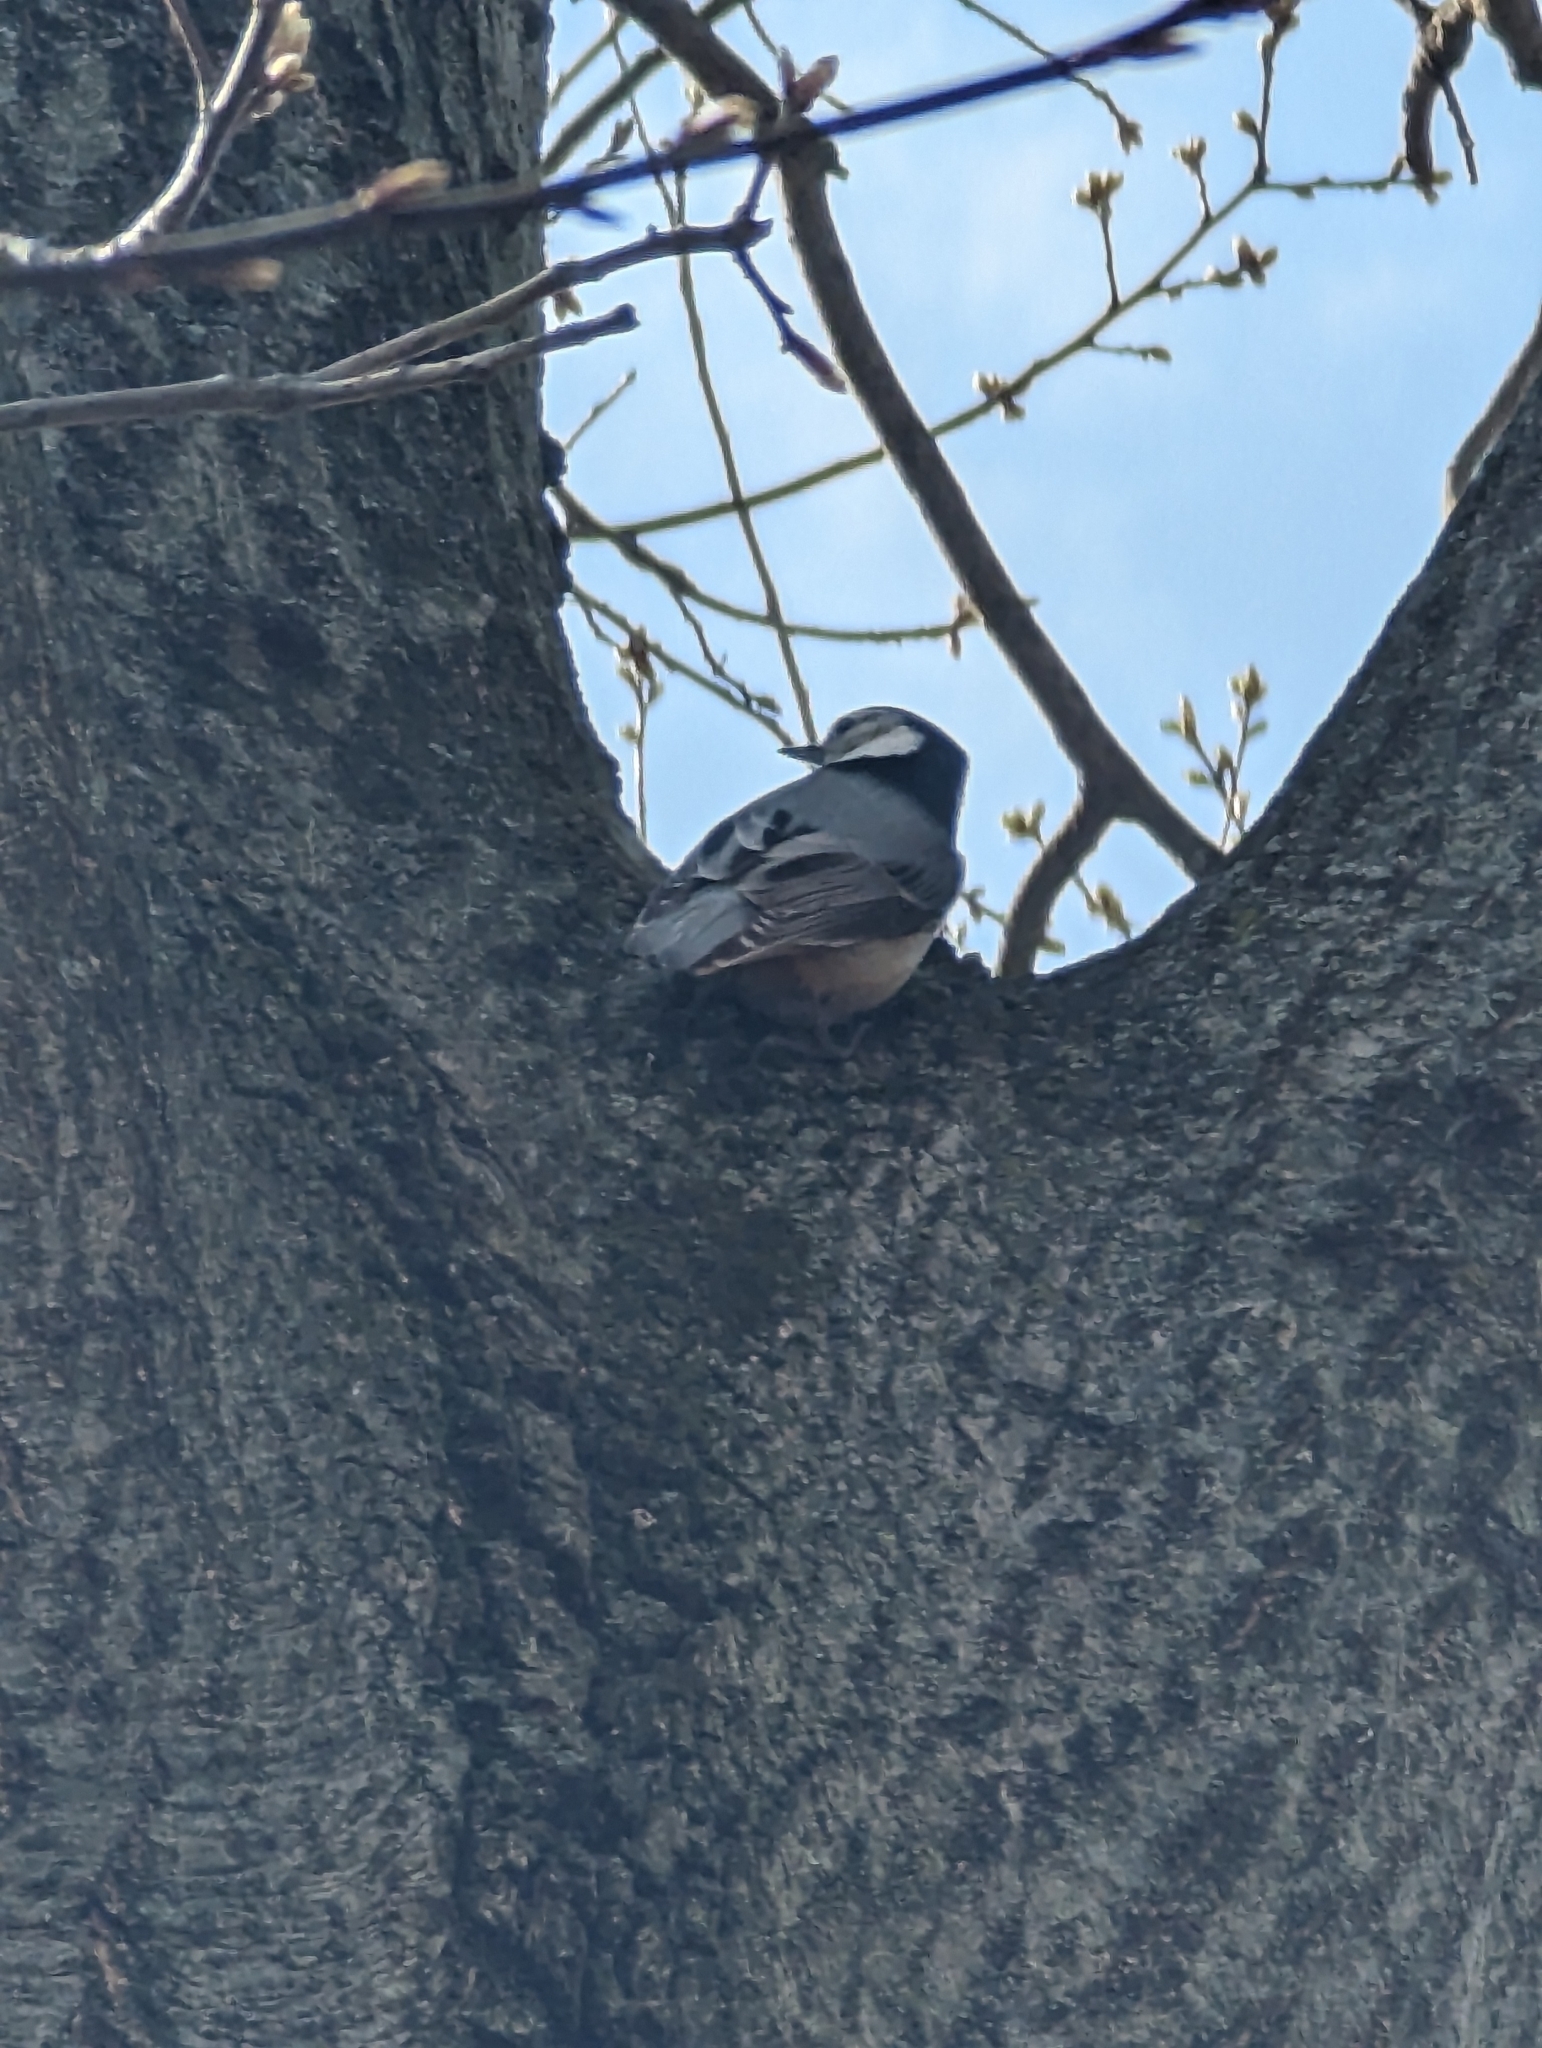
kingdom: Animalia
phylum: Chordata
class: Aves
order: Passeriformes
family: Sittidae
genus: Sitta
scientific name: Sitta carolinensis
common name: White-breasted nuthatch
